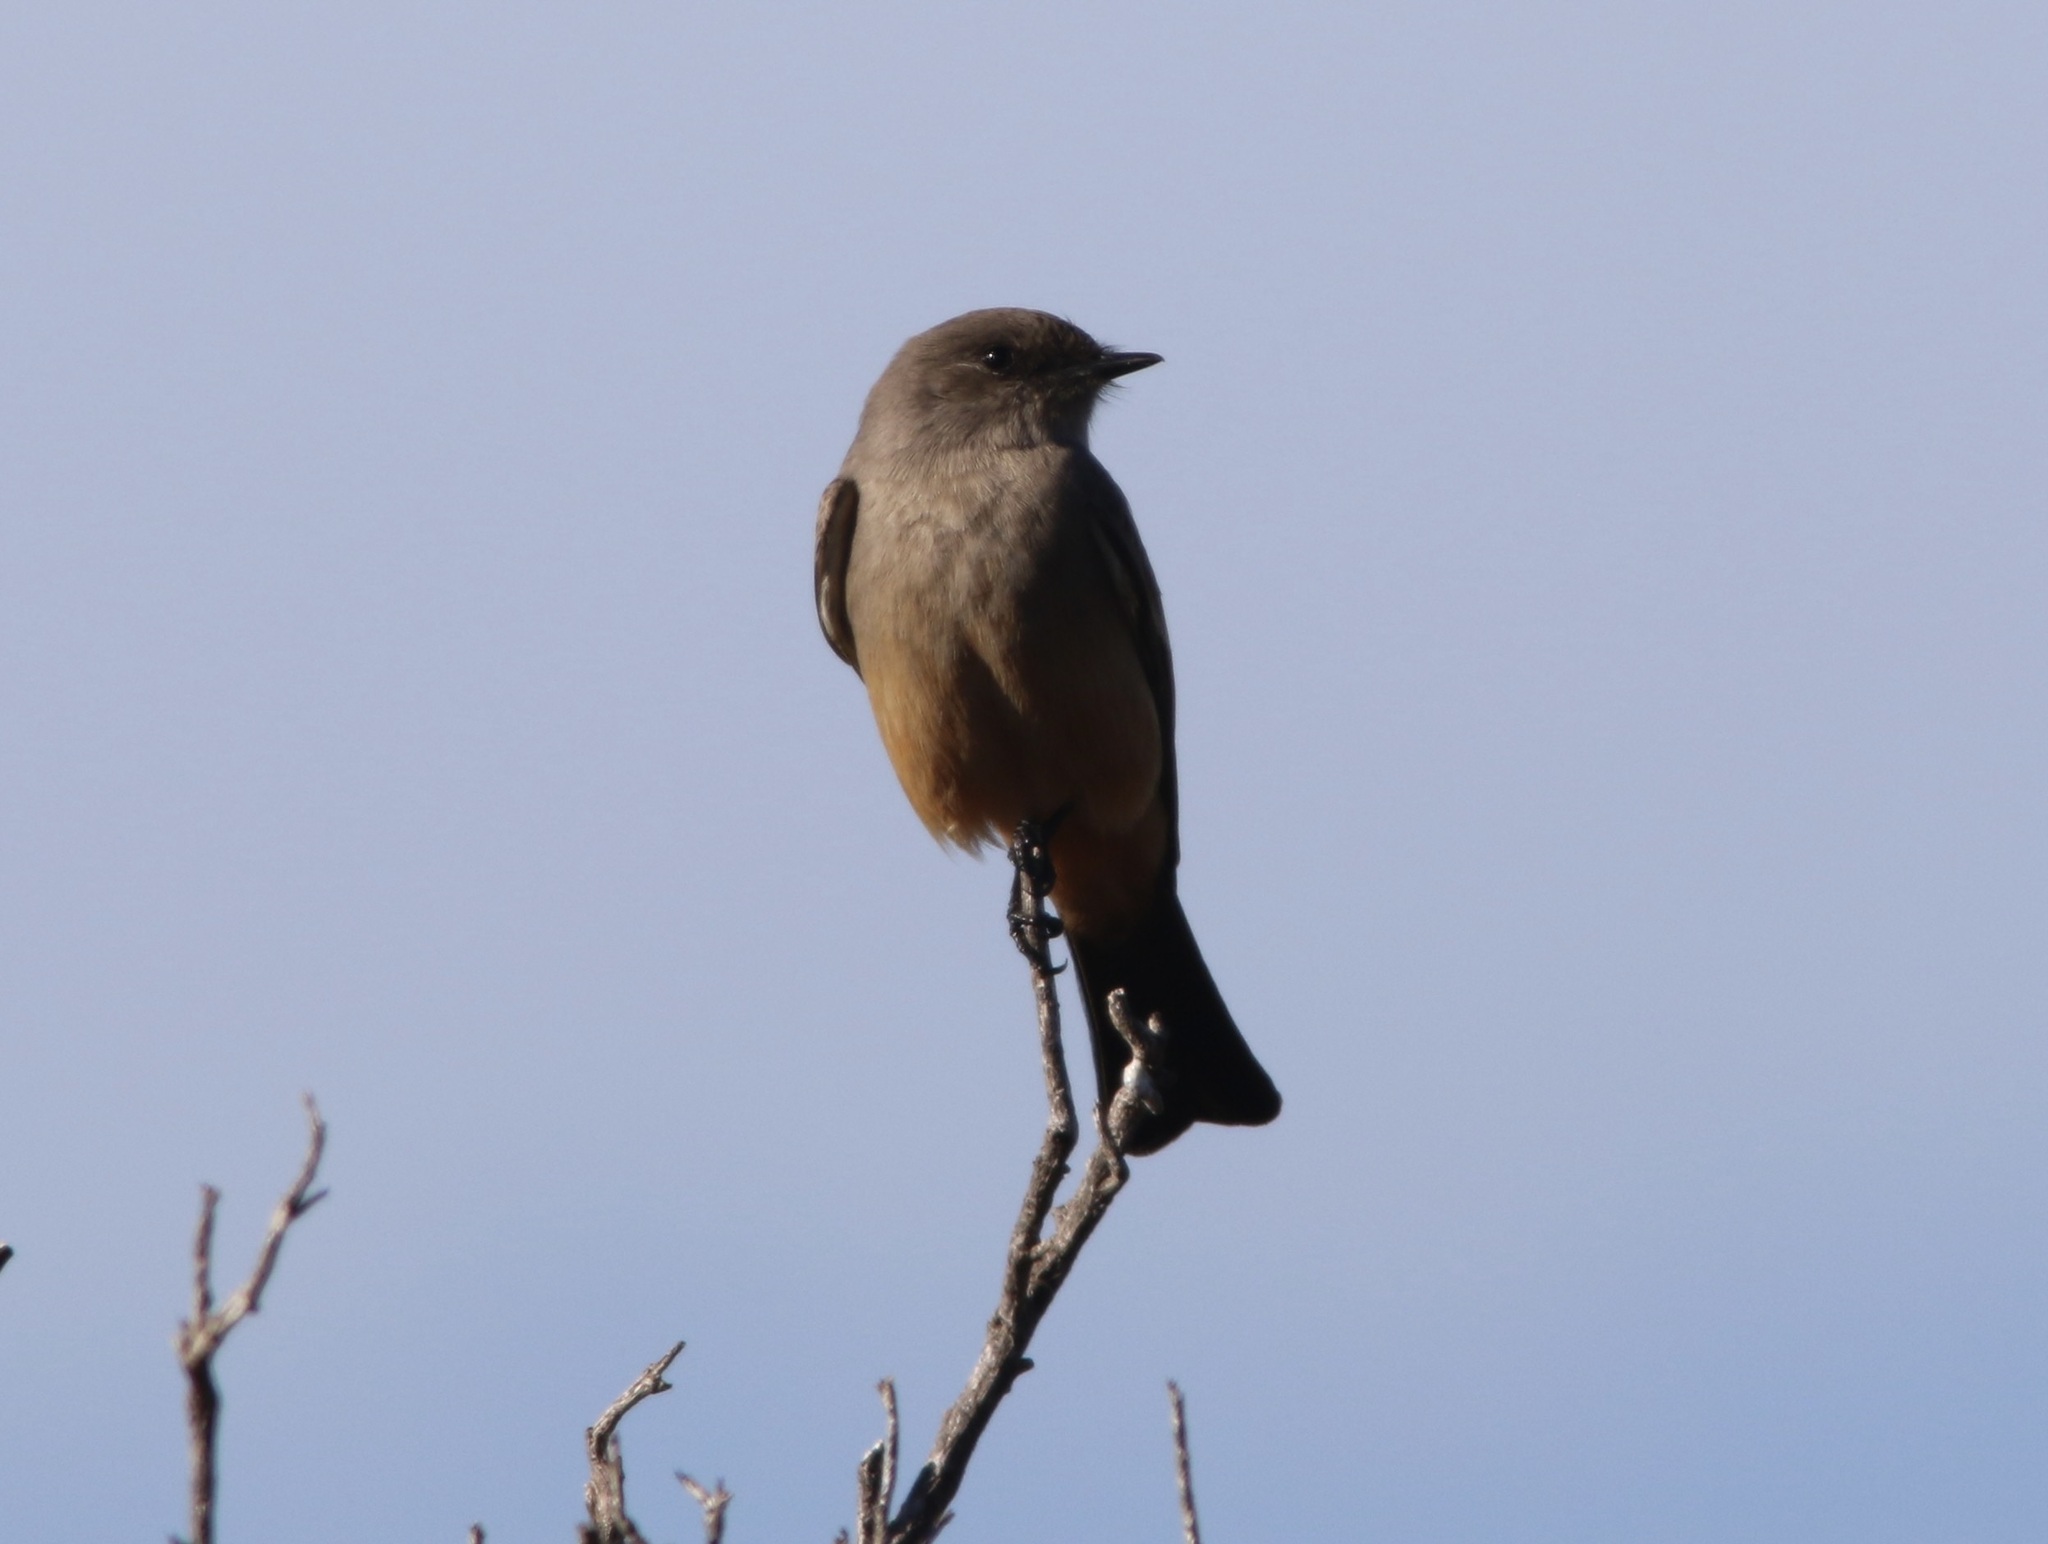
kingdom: Animalia
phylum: Chordata
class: Aves
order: Passeriformes
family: Tyrannidae
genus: Sayornis
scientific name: Sayornis saya
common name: Say's phoebe
